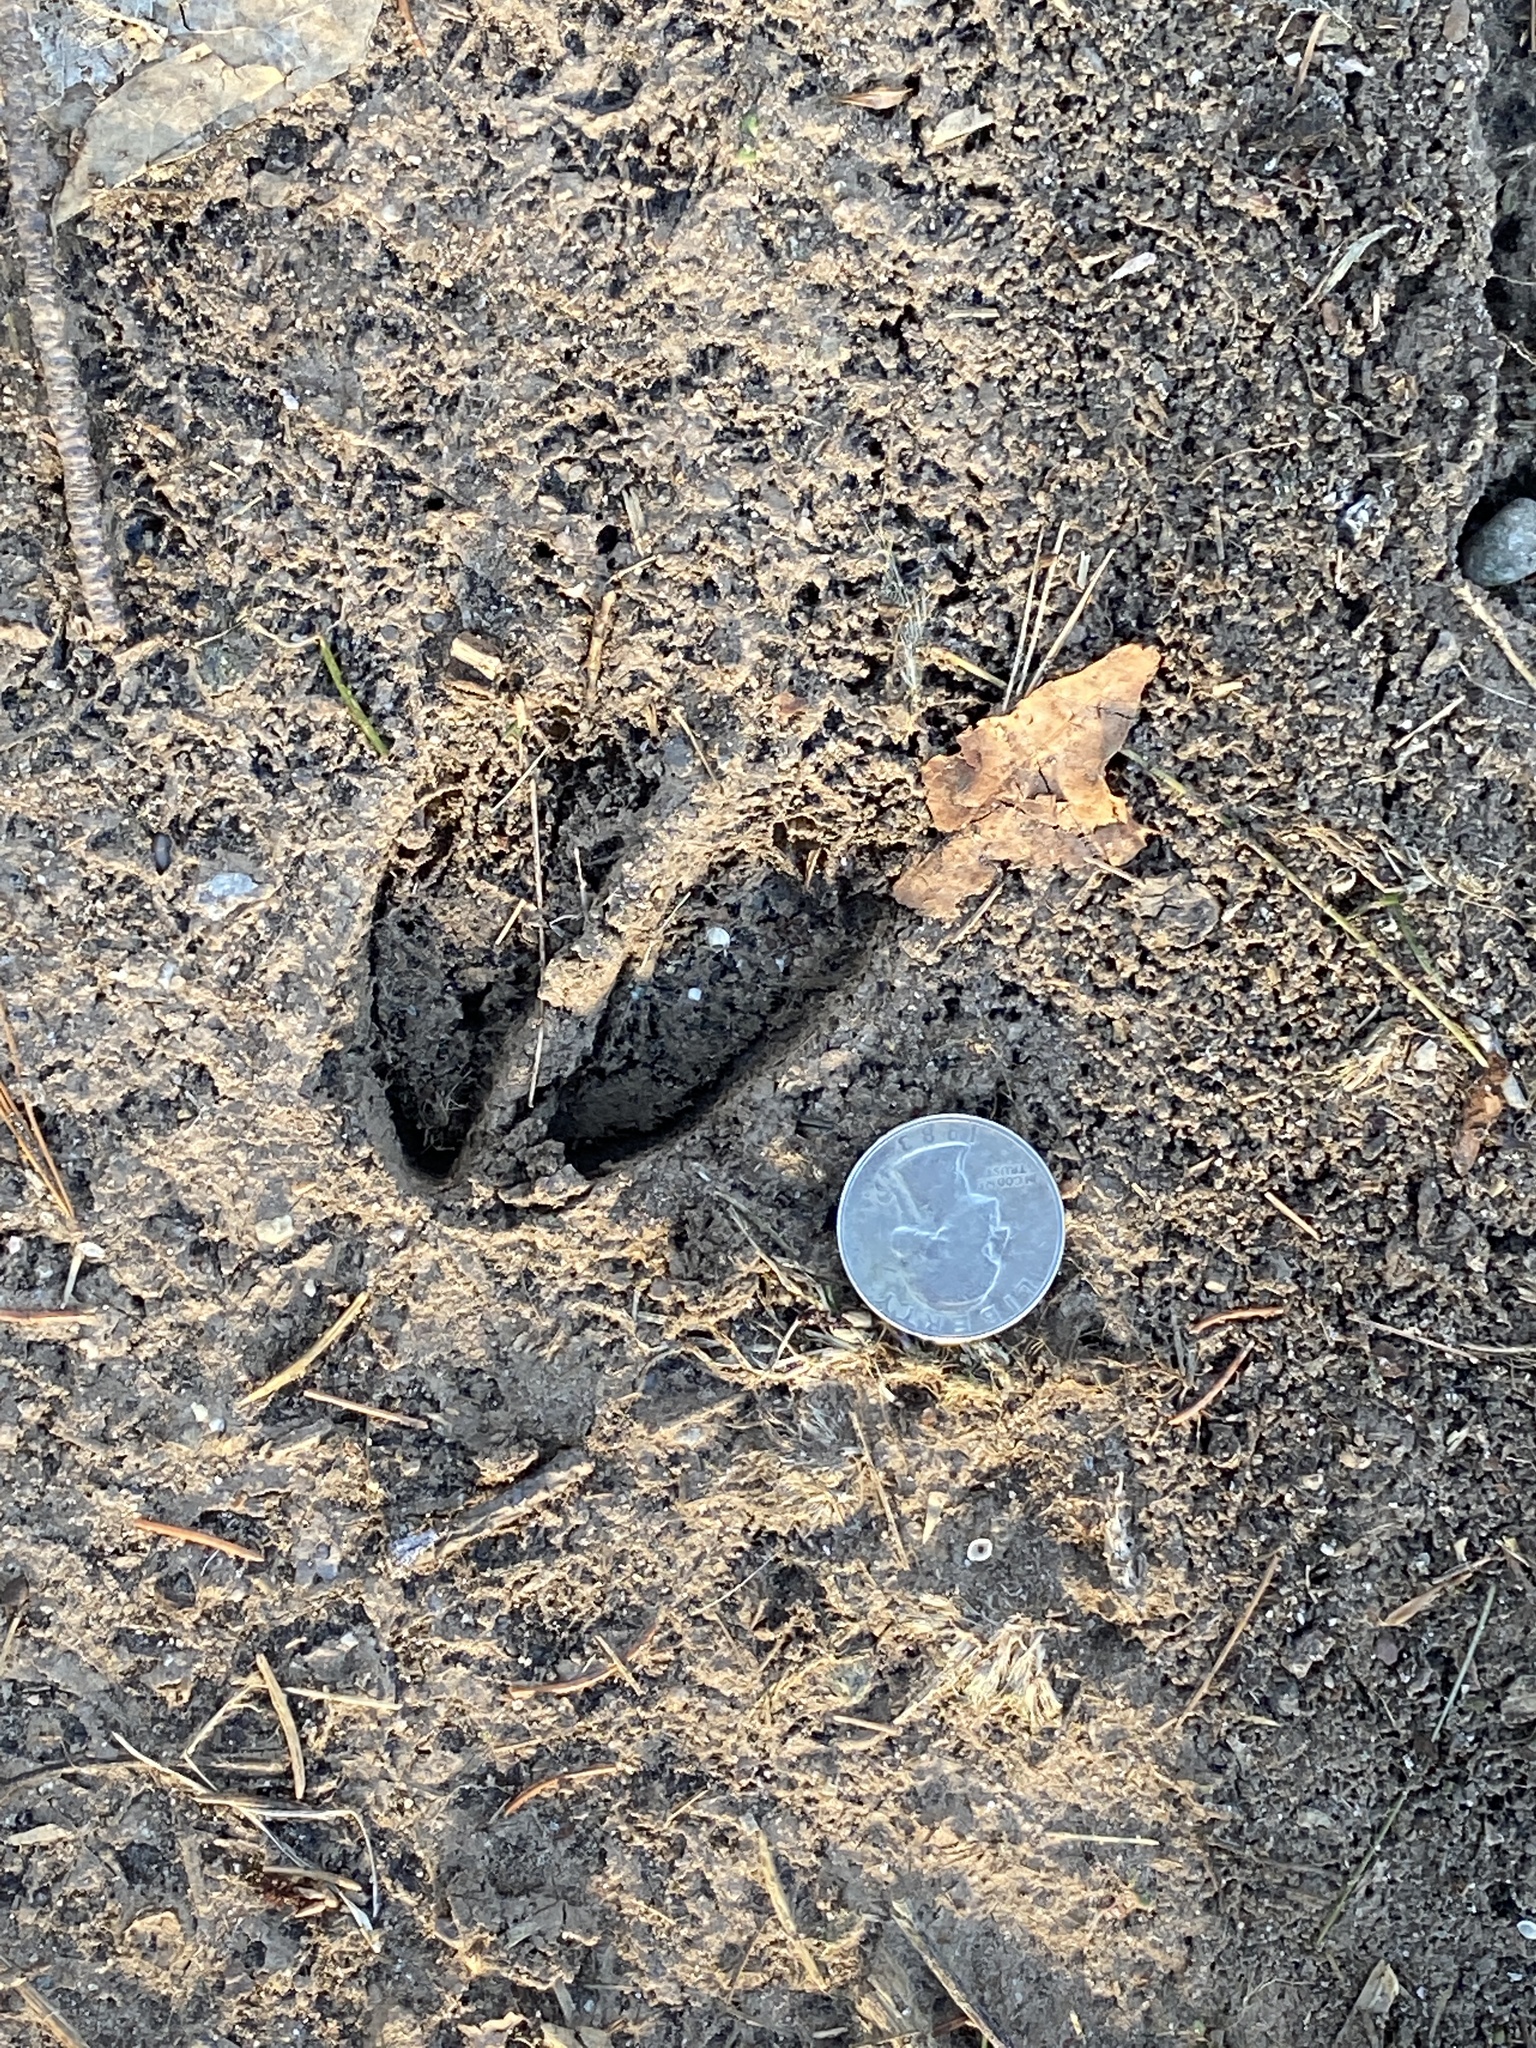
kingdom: Animalia
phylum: Chordata
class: Mammalia
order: Artiodactyla
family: Cervidae
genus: Odocoileus
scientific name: Odocoileus virginianus
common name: White-tailed deer
